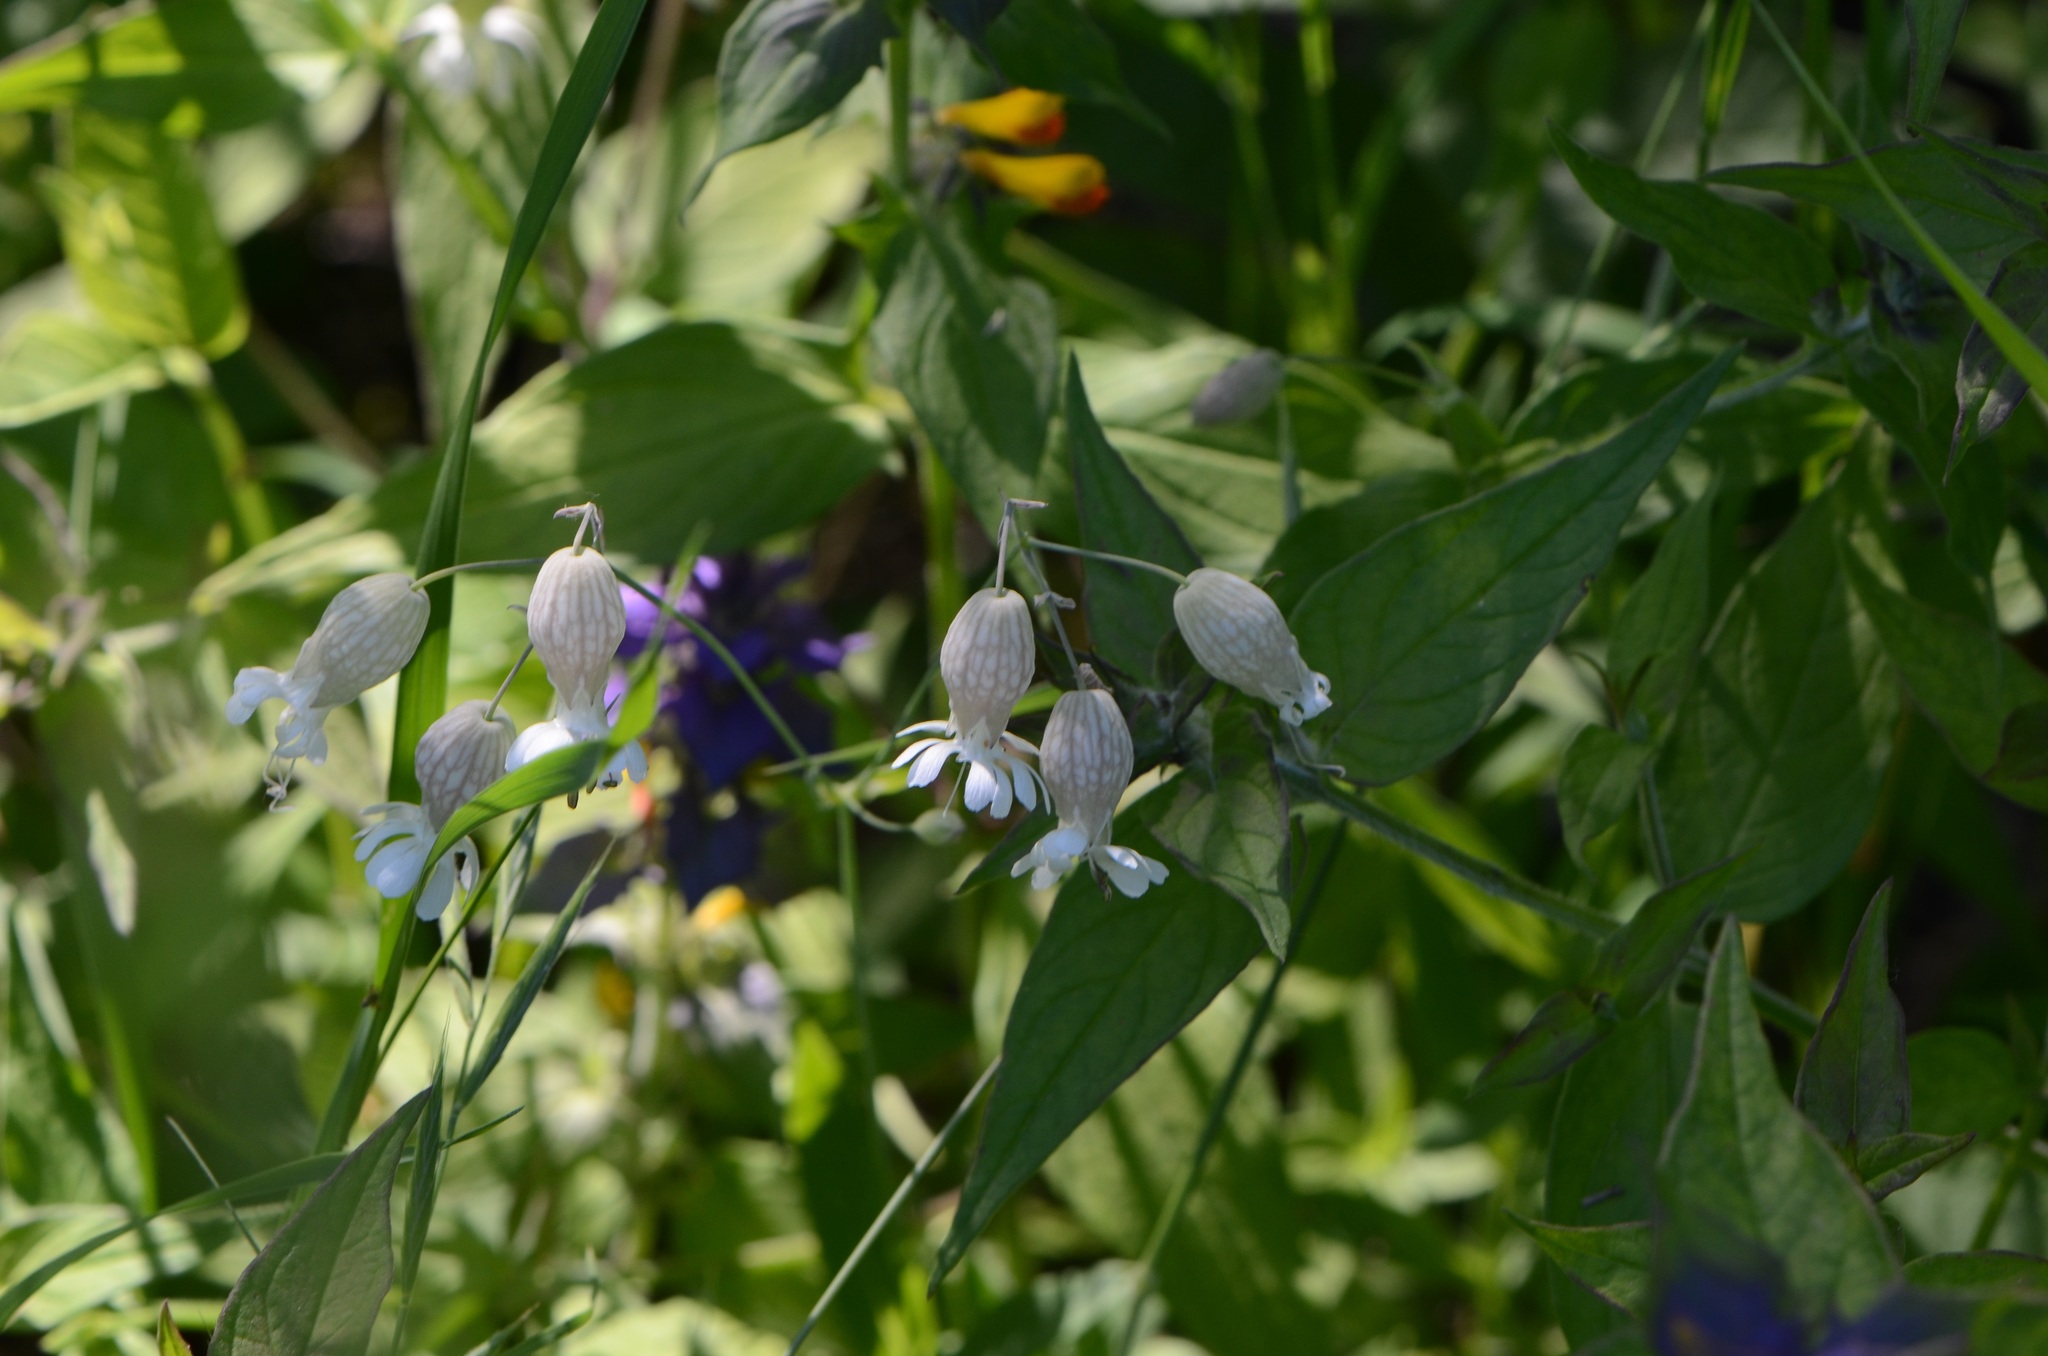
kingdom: Plantae
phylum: Tracheophyta
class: Magnoliopsida
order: Caryophyllales
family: Caryophyllaceae
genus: Silene
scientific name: Silene vulgaris
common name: Bladder campion
